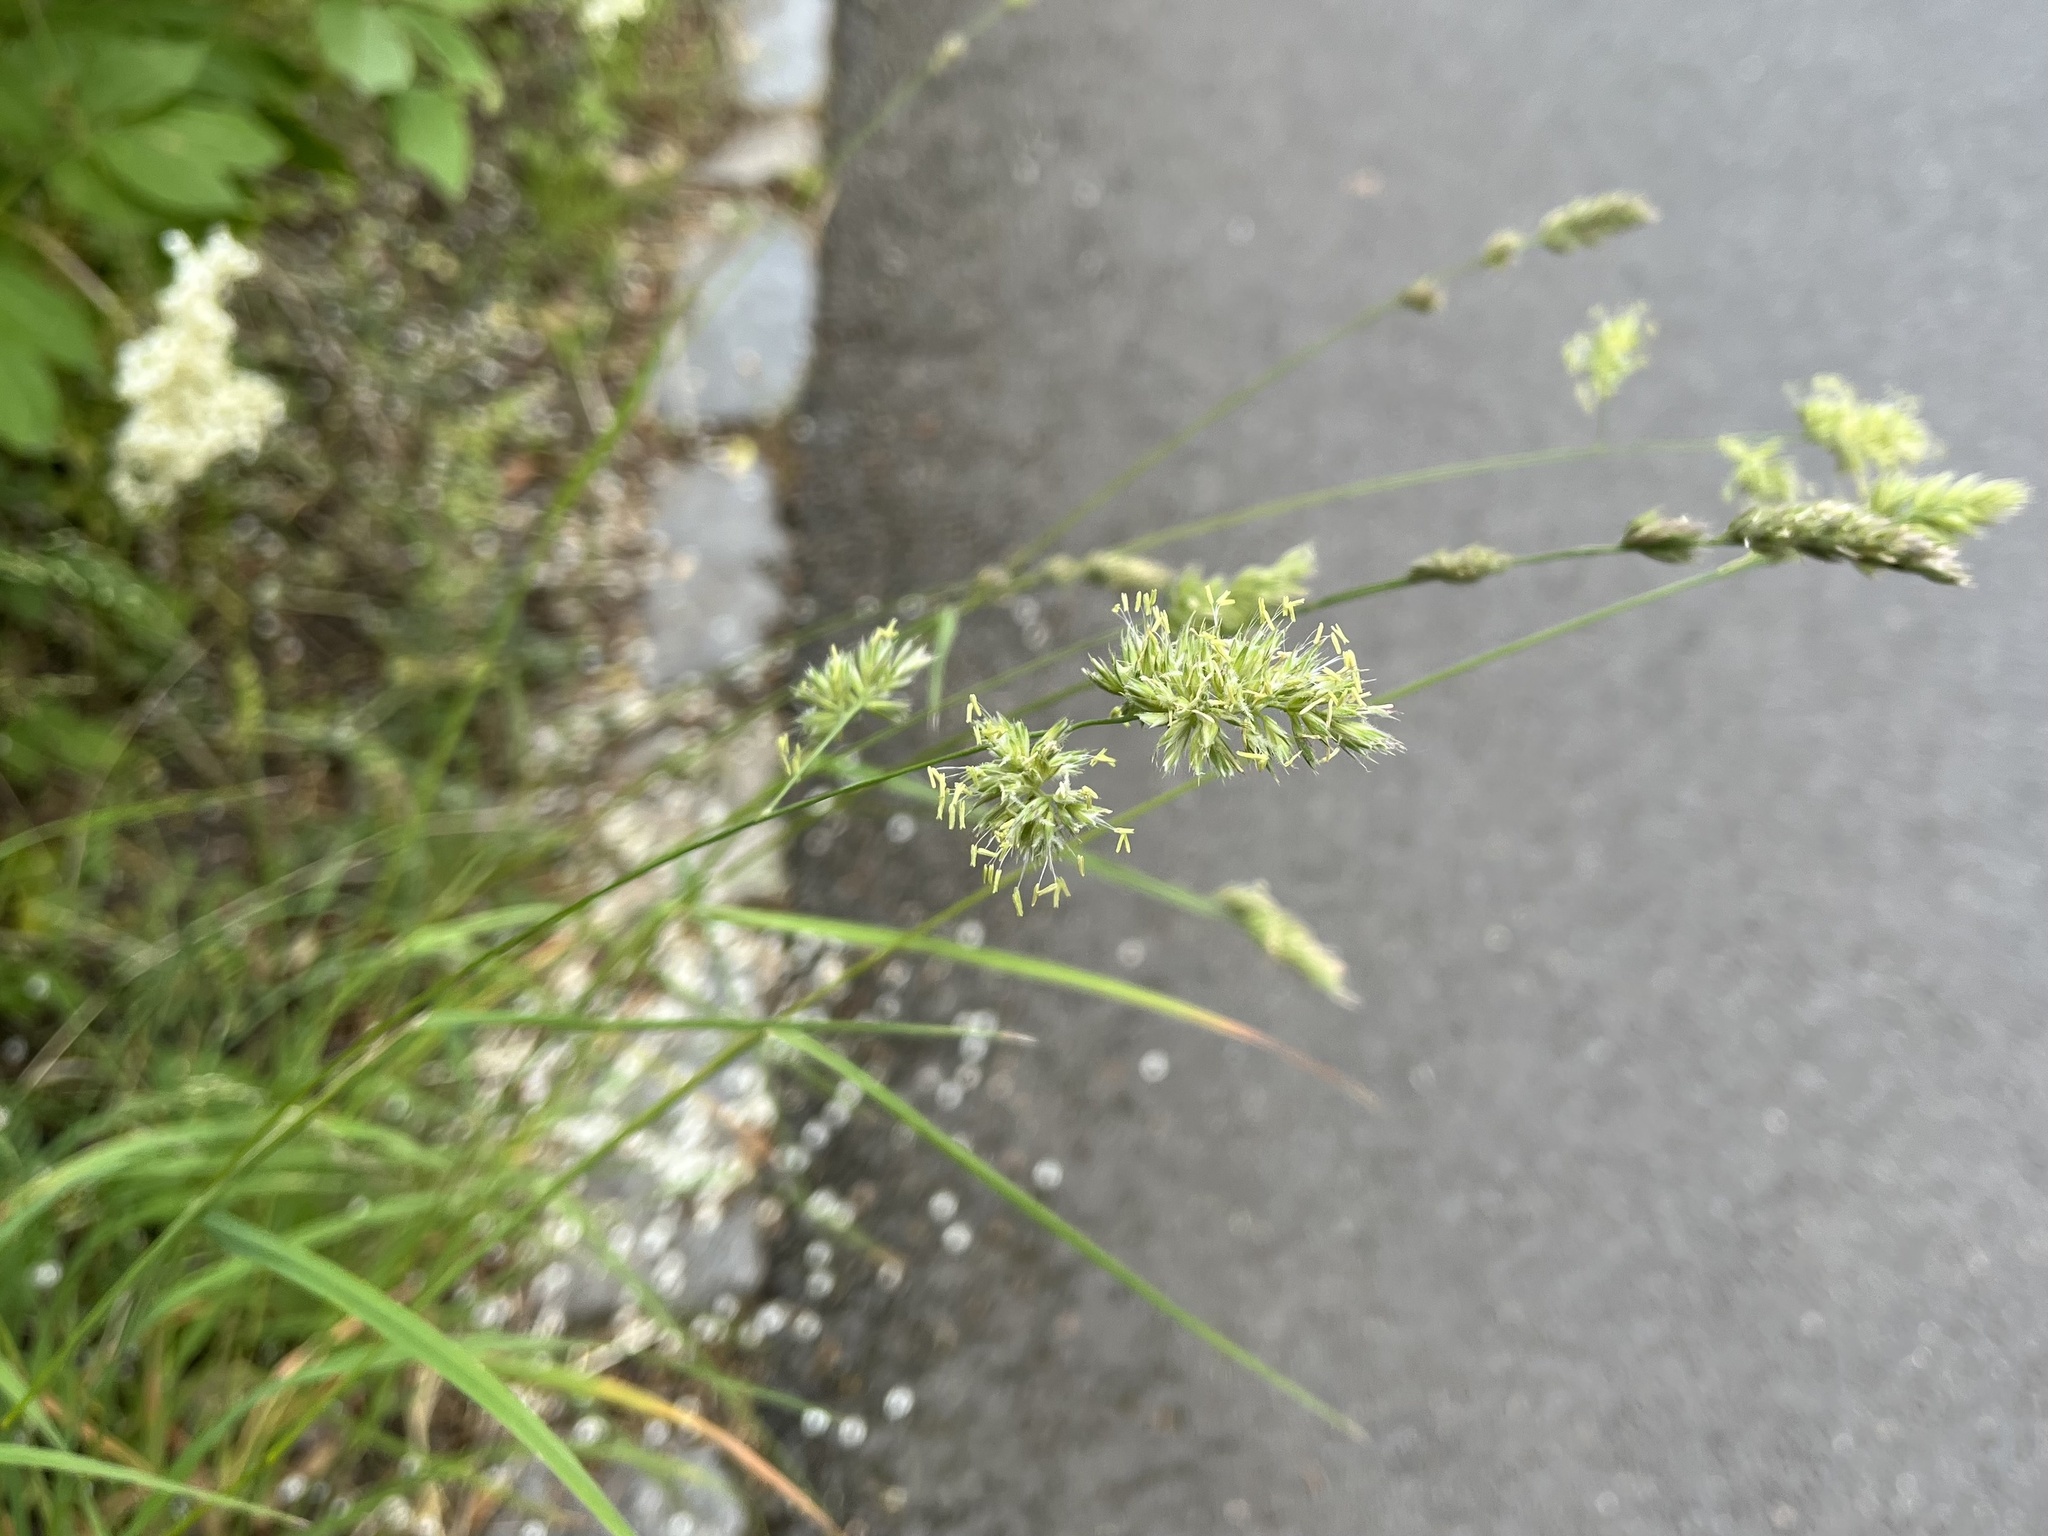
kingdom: Plantae
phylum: Tracheophyta
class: Liliopsida
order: Poales
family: Poaceae
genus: Dactylis
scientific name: Dactylis glomerata
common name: Orchardgrass
